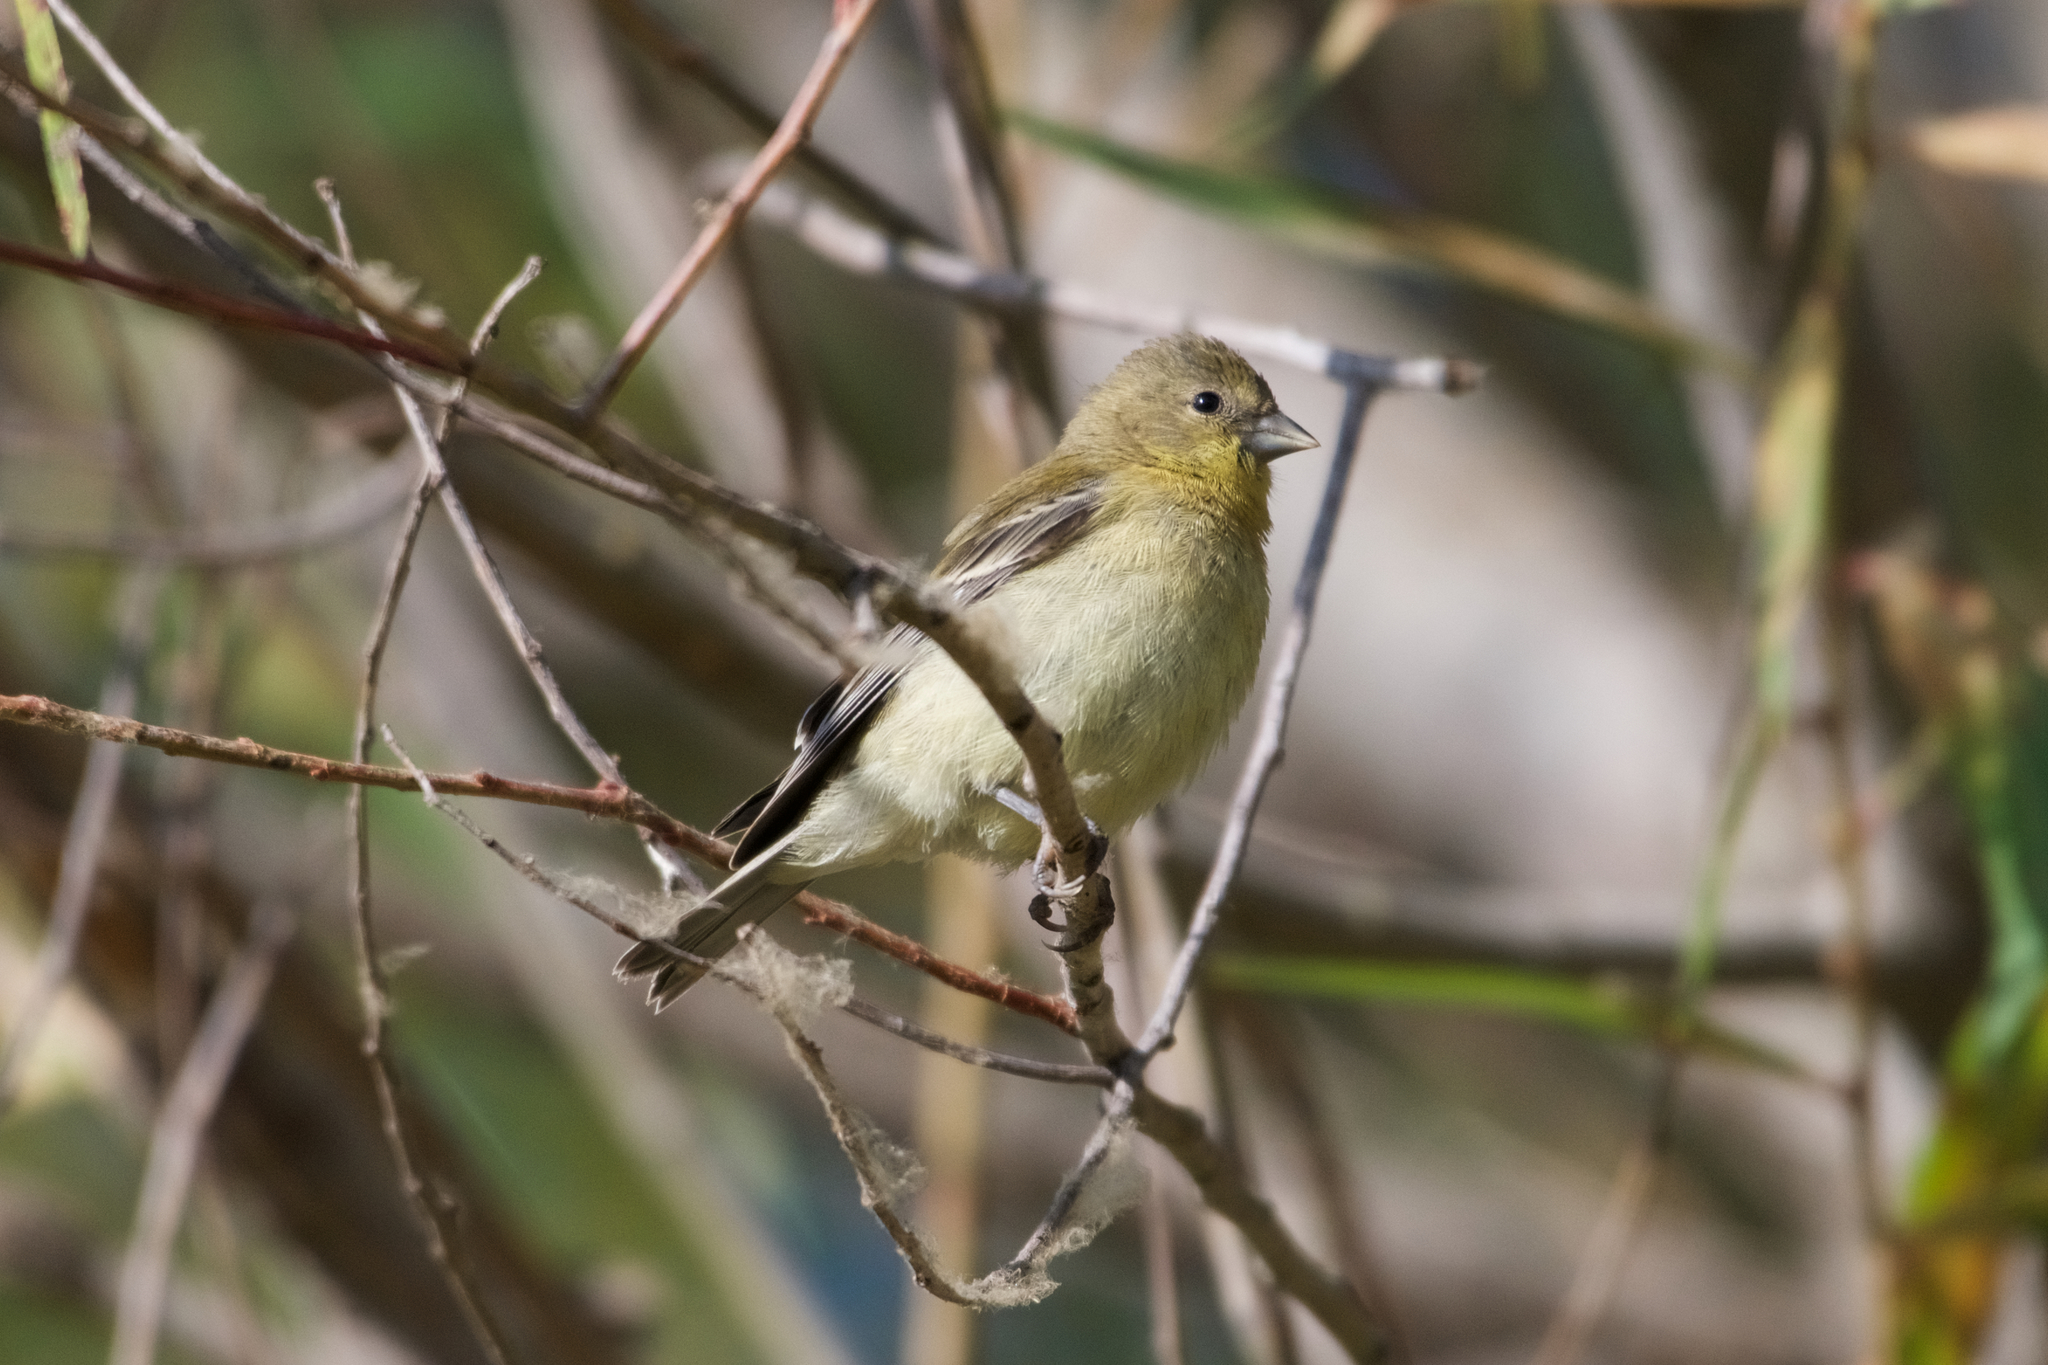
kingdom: Animalia
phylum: Chordata
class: Aves
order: Passeriformes
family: Fringillidae
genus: Spinus
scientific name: Spinus psaltria
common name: Lesser goldfinch
